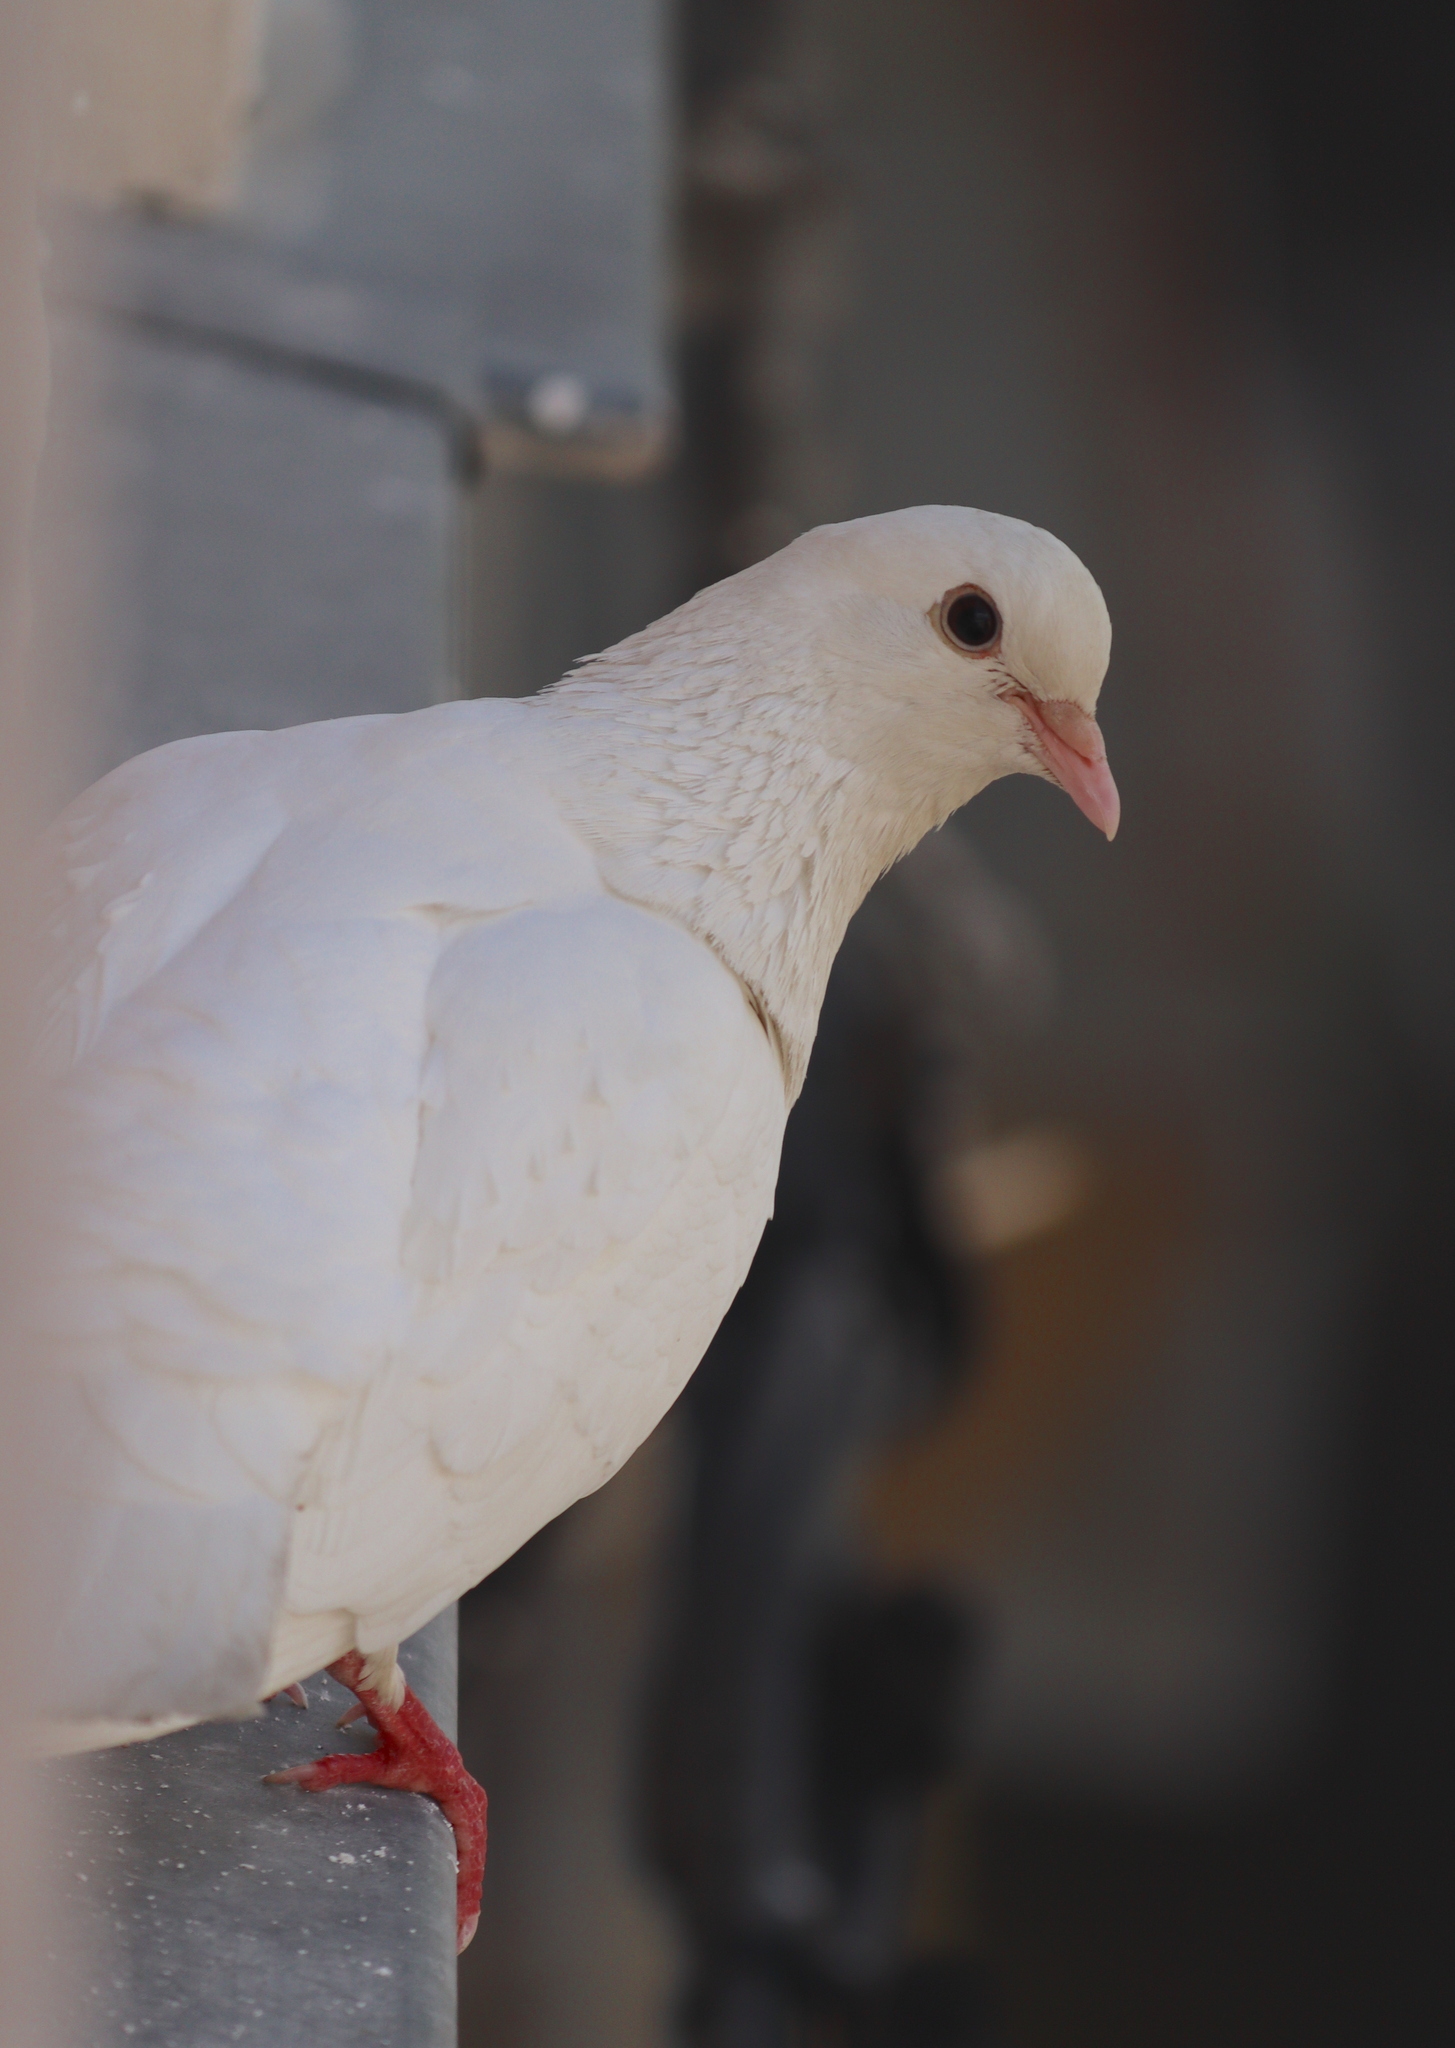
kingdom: Animalia
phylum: Chordata
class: Aves
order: Columbiformes
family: Columbidae
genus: Columba
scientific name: Columba livia
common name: Rock pigeon
